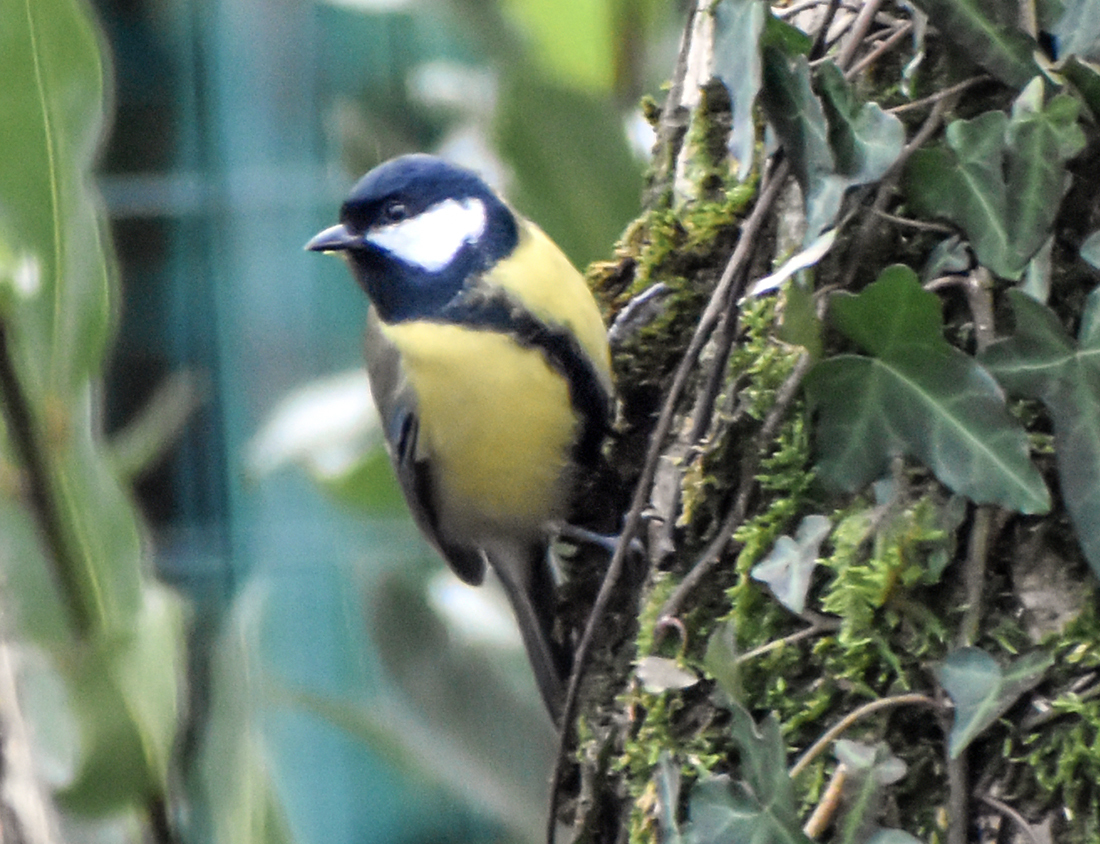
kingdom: Animalia
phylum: Chordata
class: Aves
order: Passeriformes
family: Paridae
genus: Parus
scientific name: Parus major
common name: Great tit
